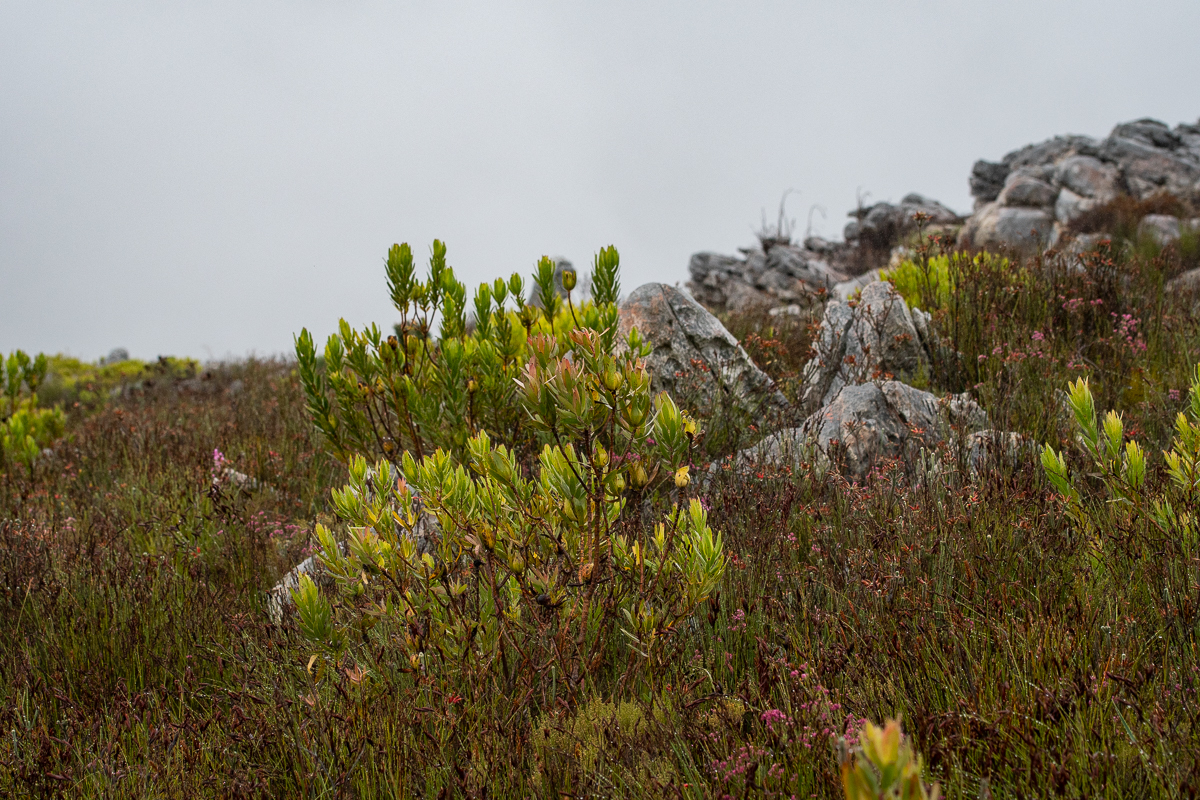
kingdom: Plantae
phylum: Tracheophyta
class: Magnoliopsida
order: Proteales
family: Proteaceae
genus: Leucadendron
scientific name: Leucadendron laureolum
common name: Golden sunshinebush
